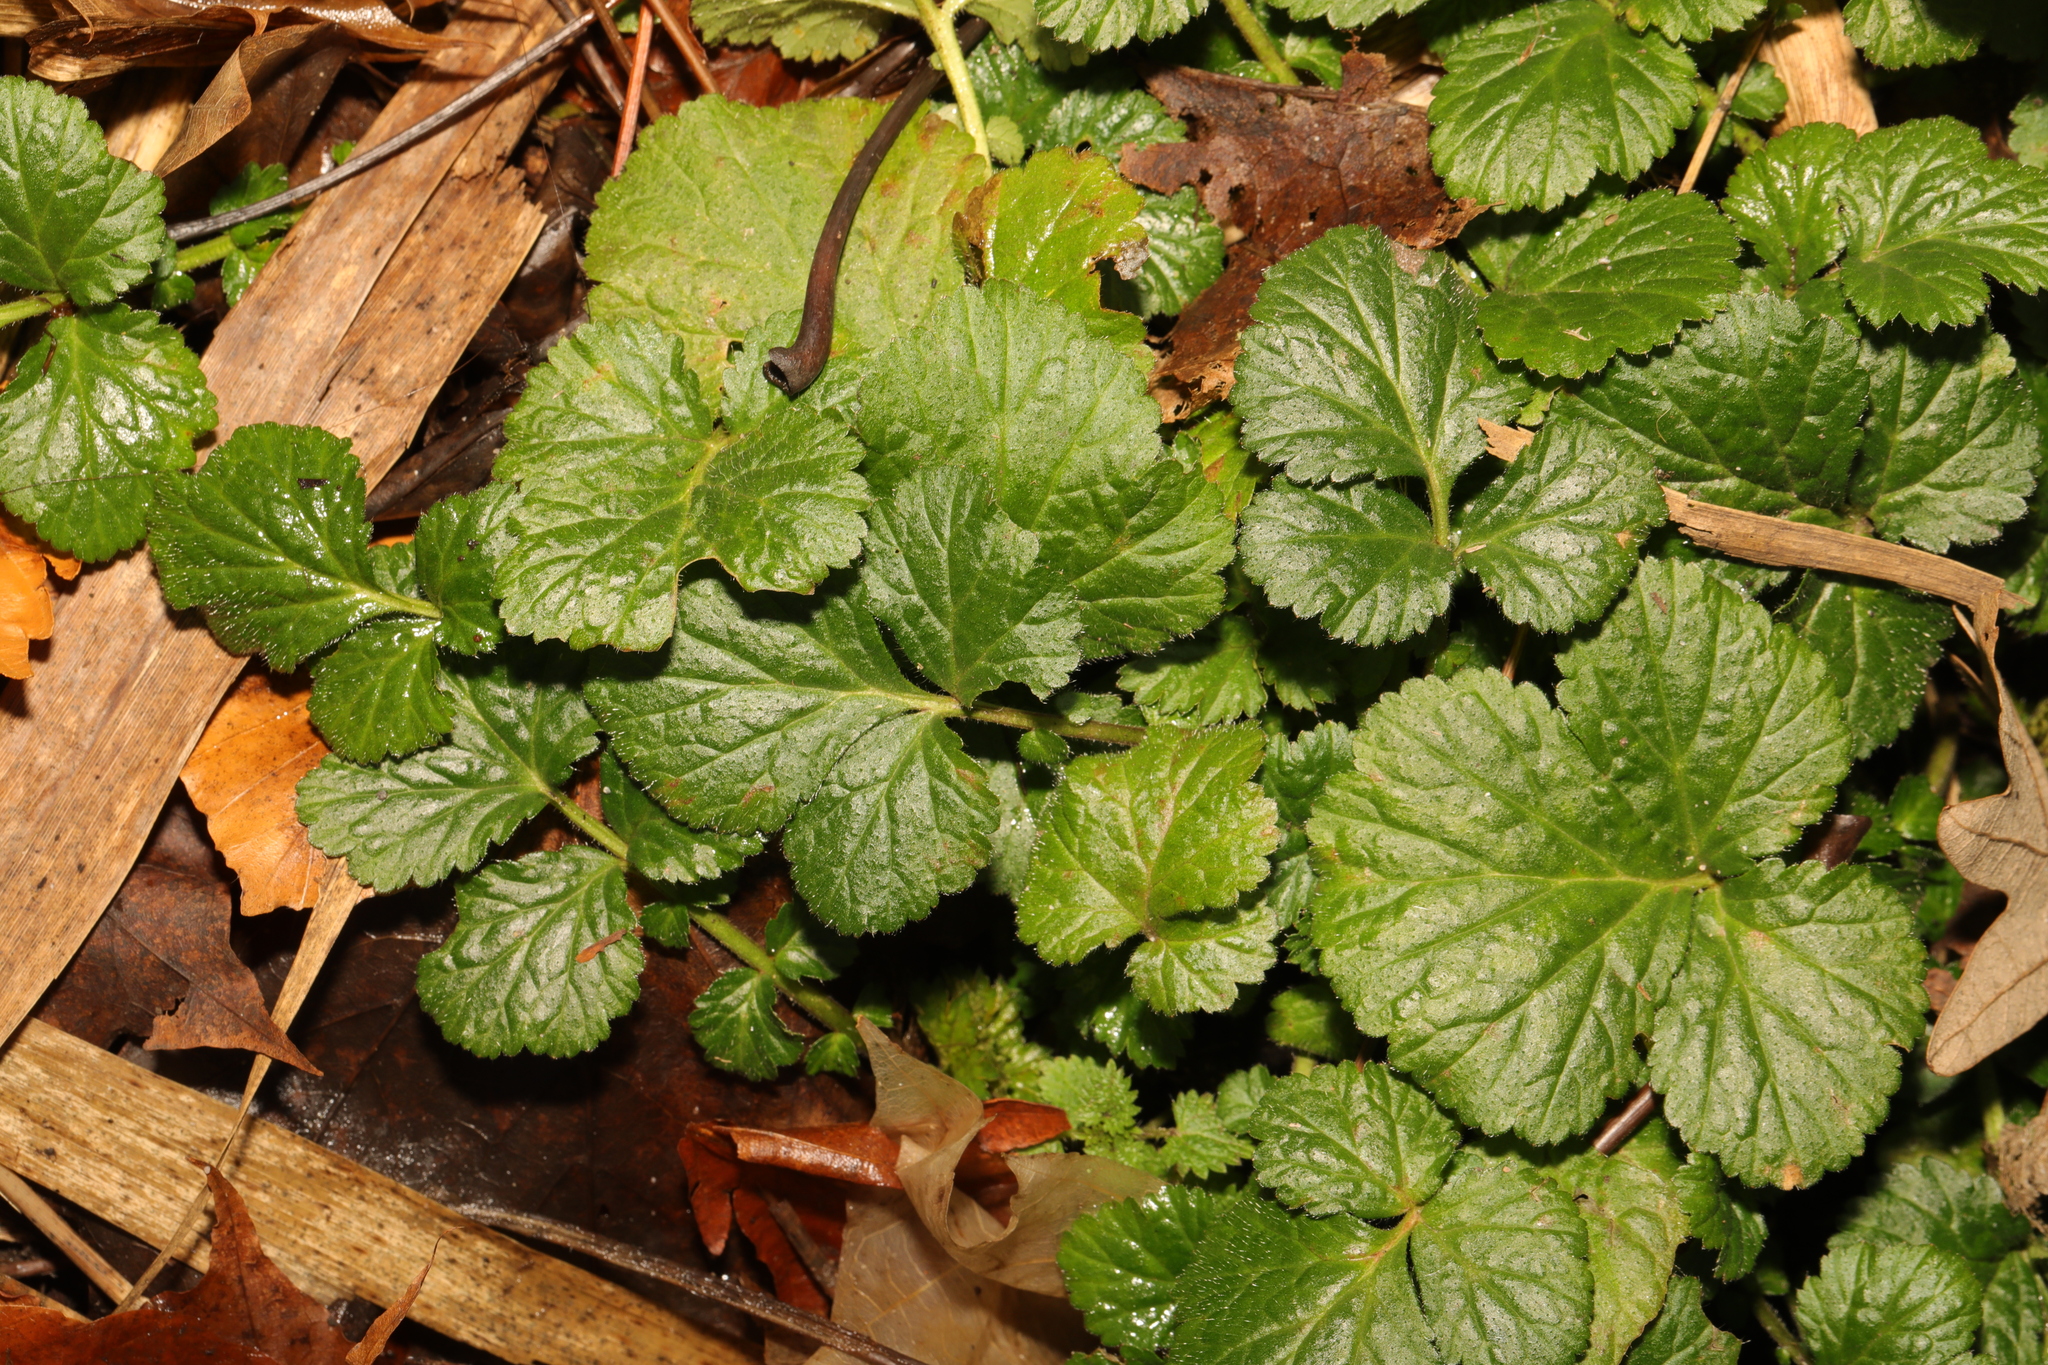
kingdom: Plantae
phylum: Tracheophyta
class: Magnoliopsida
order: Rosales
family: Rosaceae
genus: Geum
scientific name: Geum urbanum
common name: Wood avens
